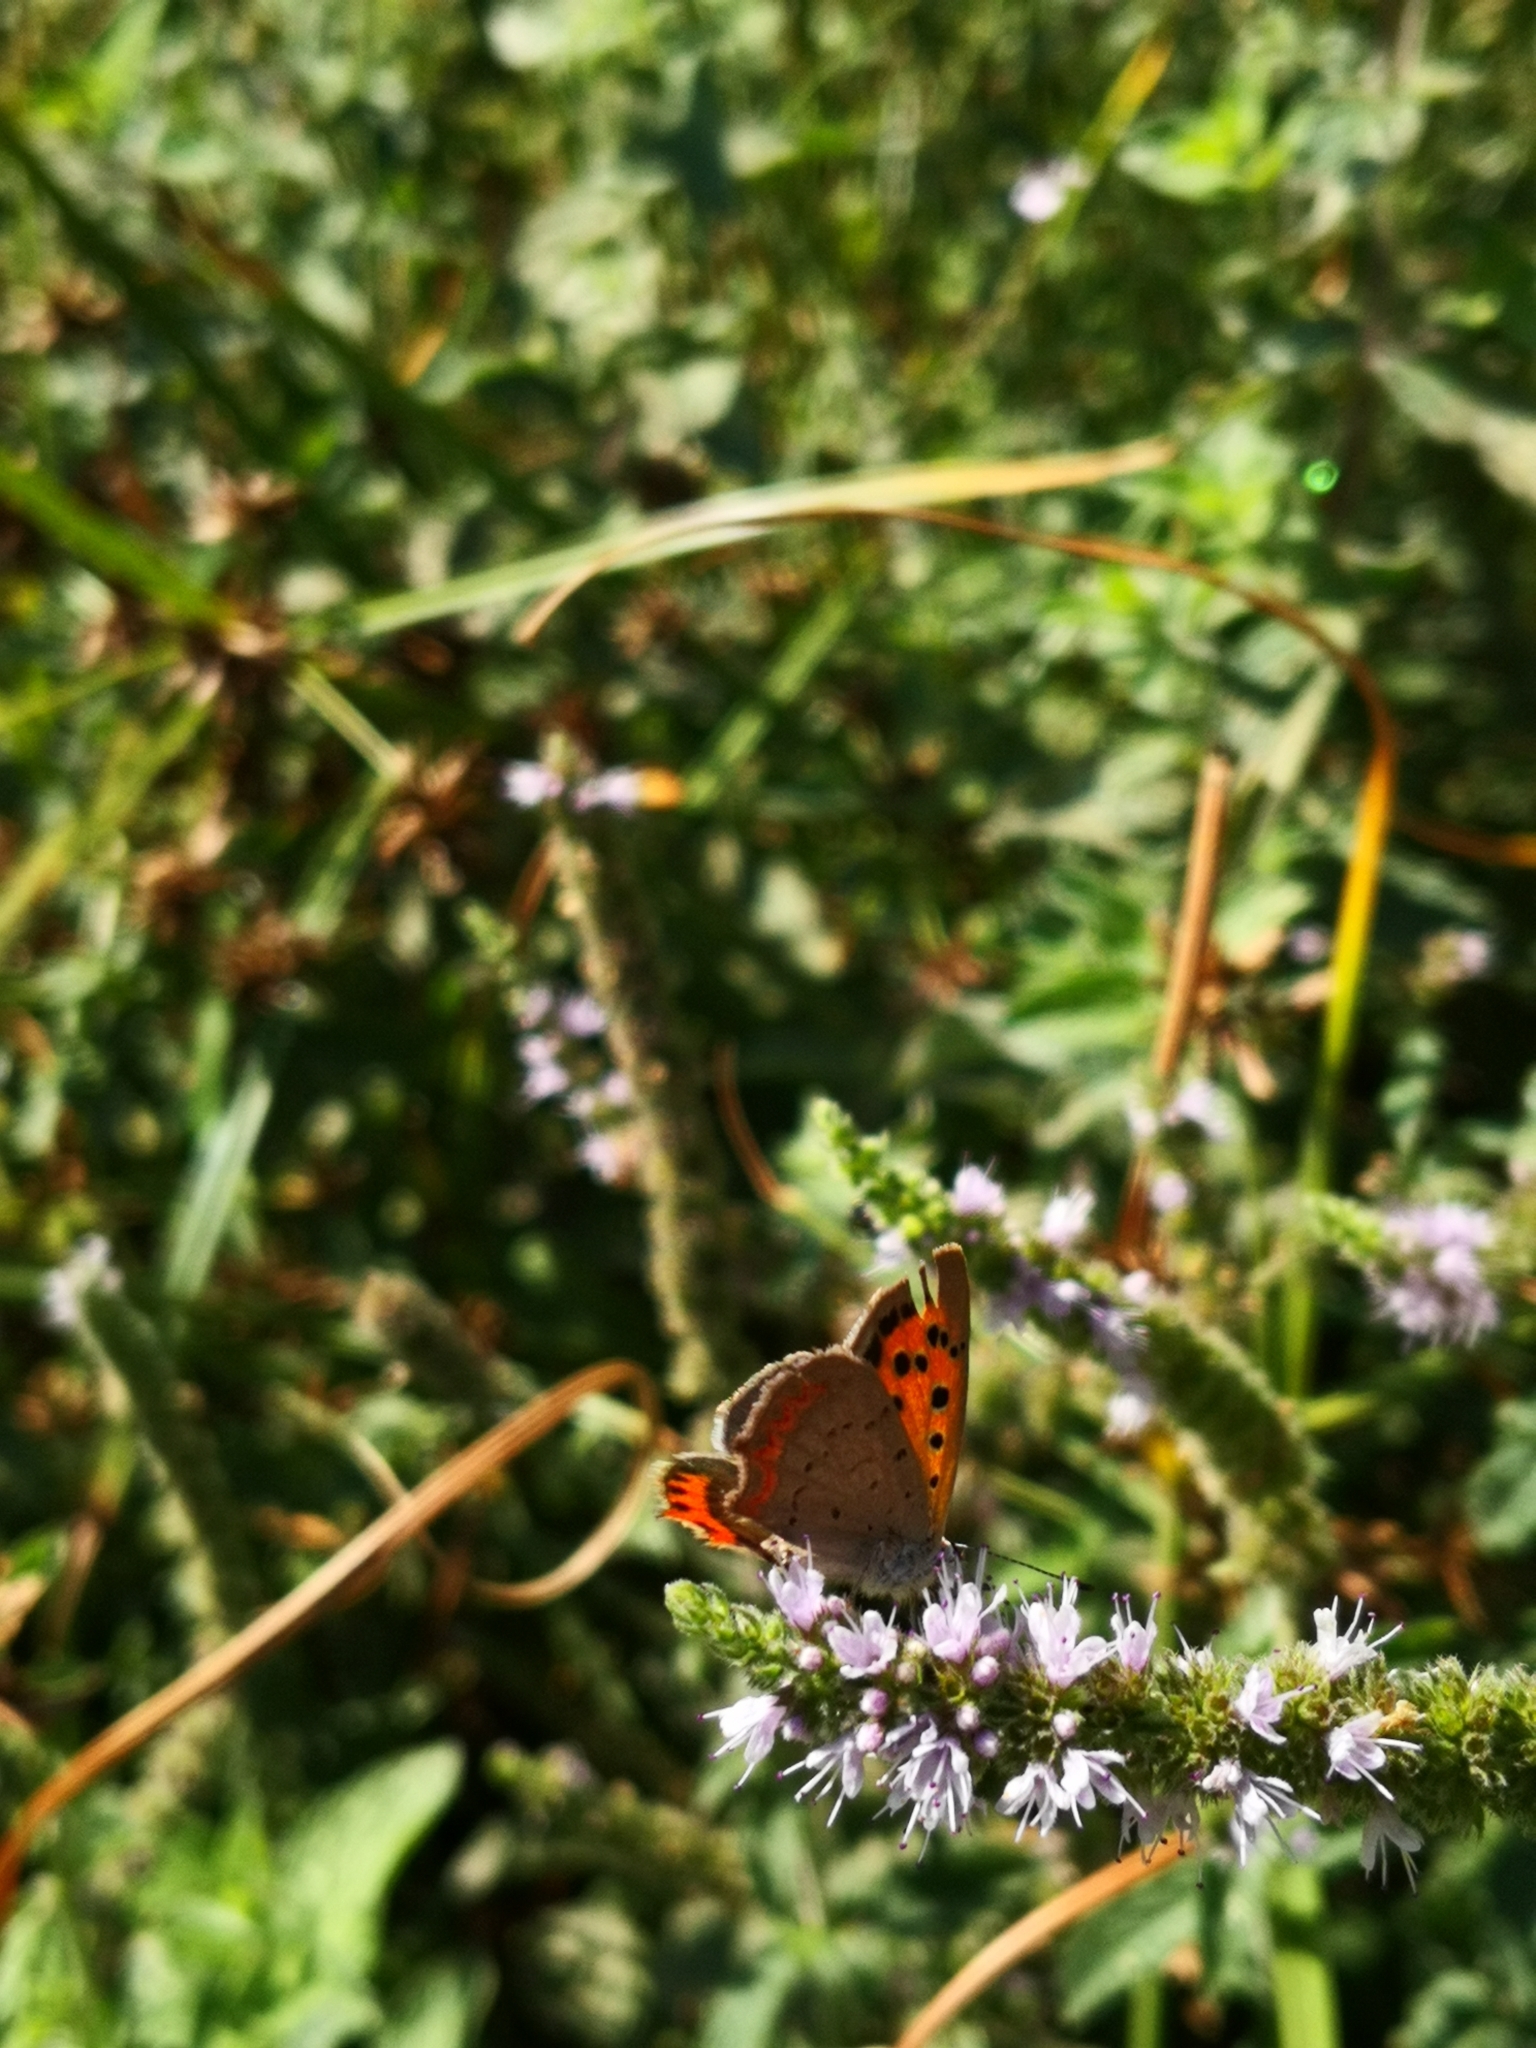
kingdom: Animalia
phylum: Arthropoda
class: Insecta
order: Lepidoptera
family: Lycaenidae
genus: Lycaena
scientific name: Lycaena phlaeas
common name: Small copper
